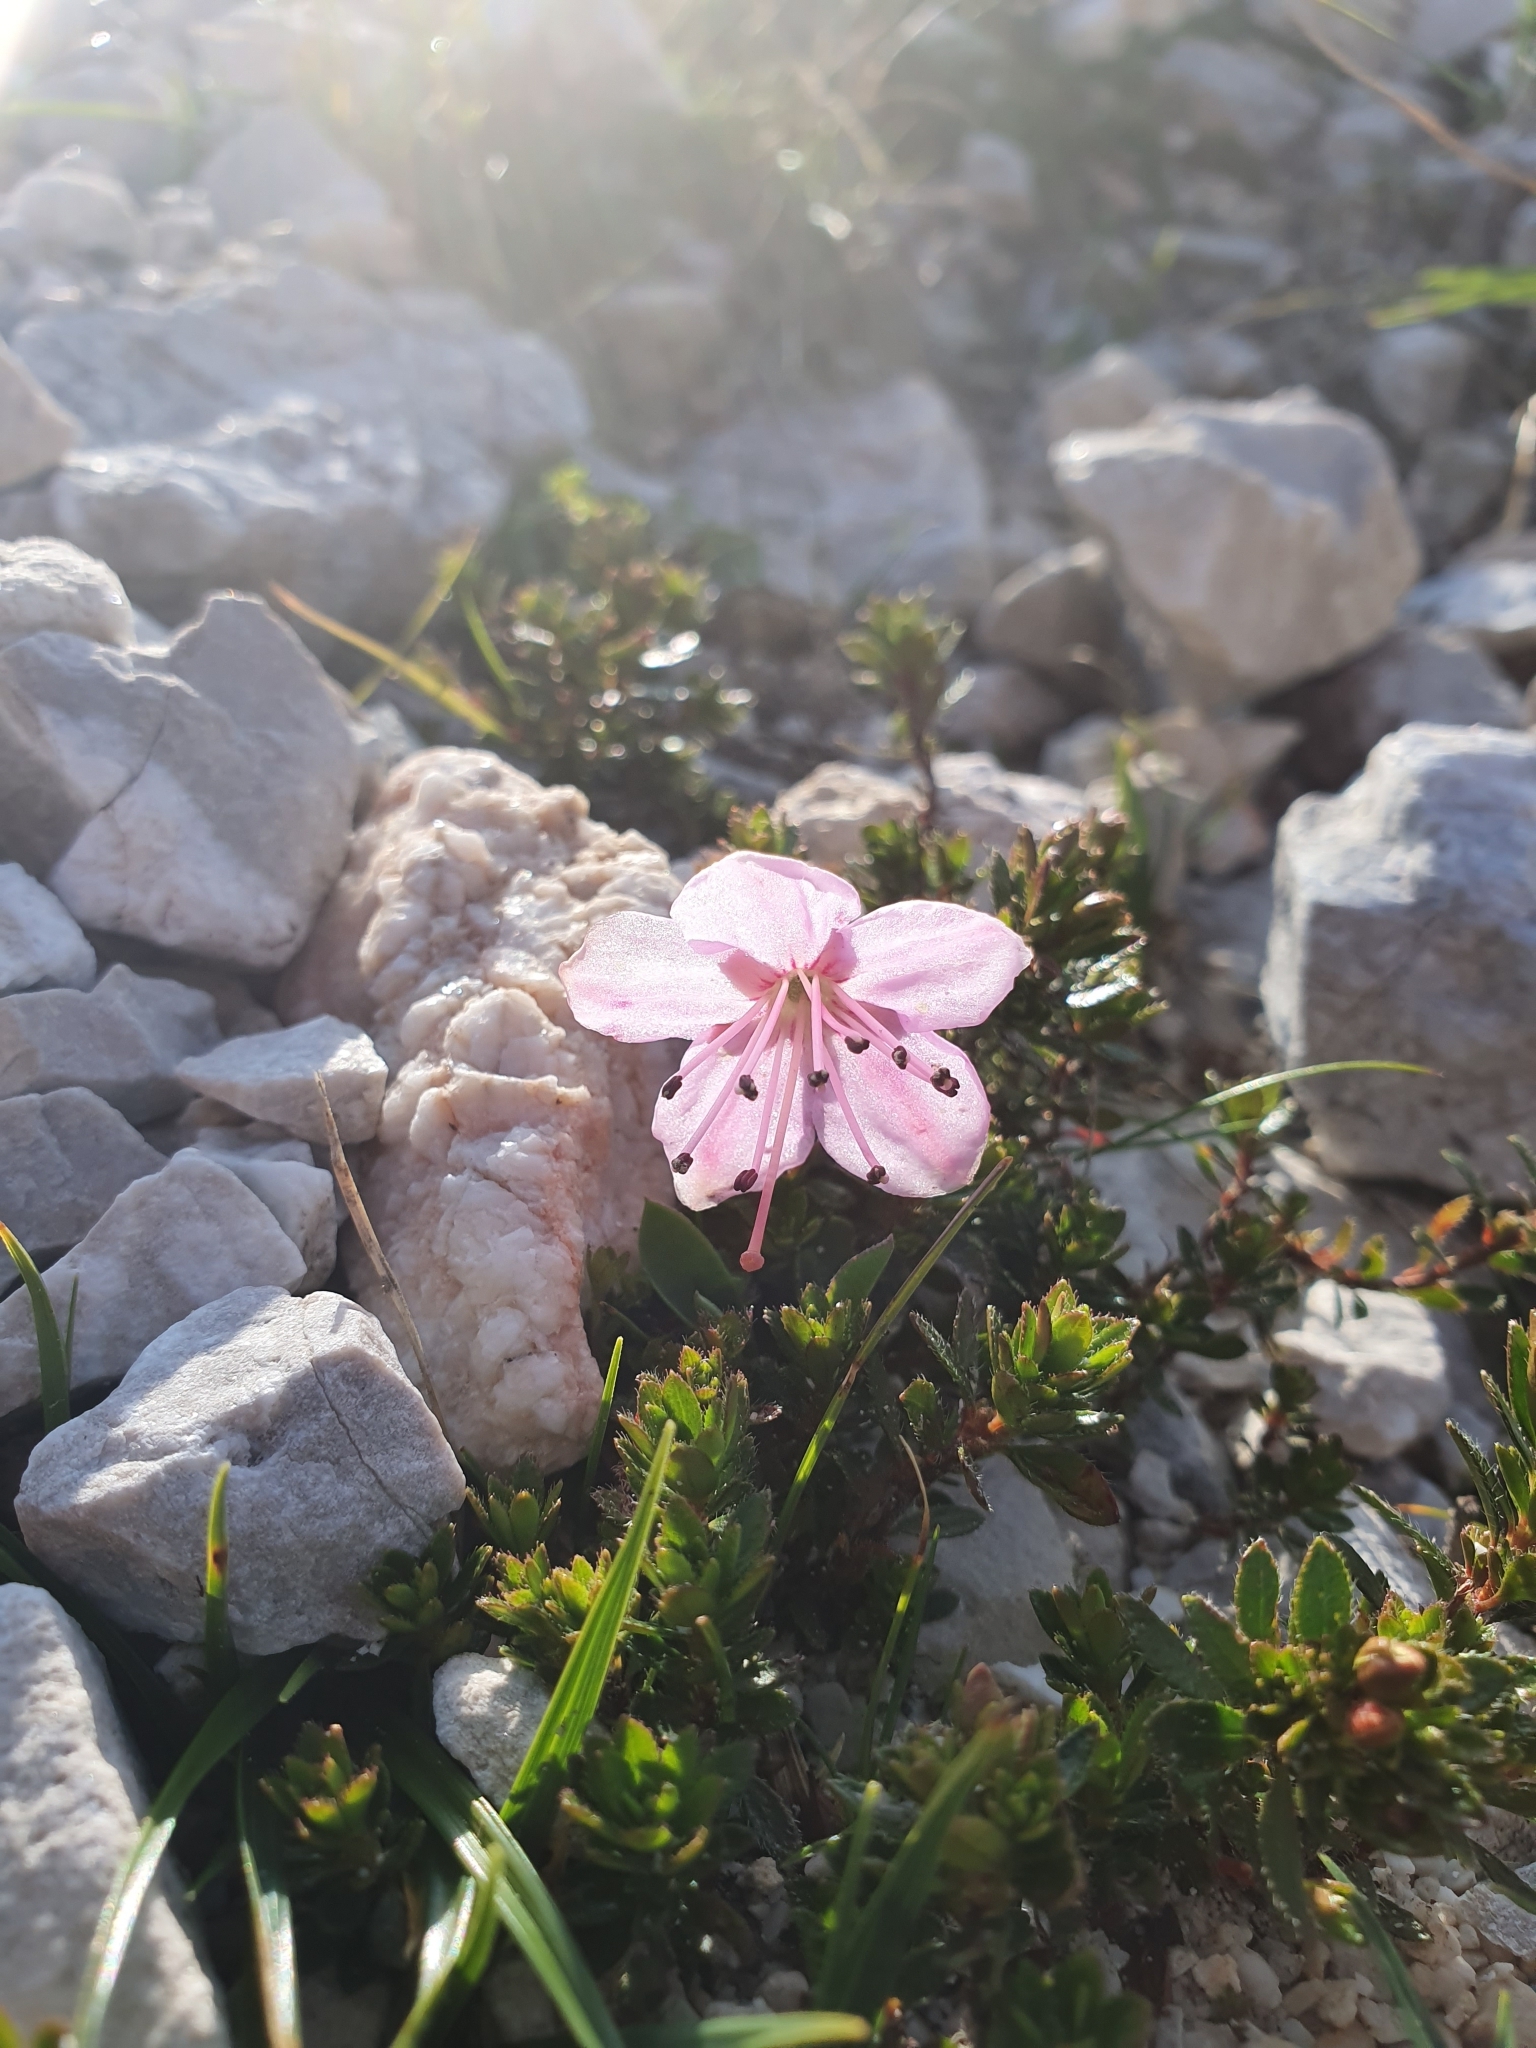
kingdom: Plantae
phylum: Tracheophyta
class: Magnoliopsida
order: Ericales
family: Ericaceae
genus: Rhodothamnus
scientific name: Rhodothamnus chamaecistus
